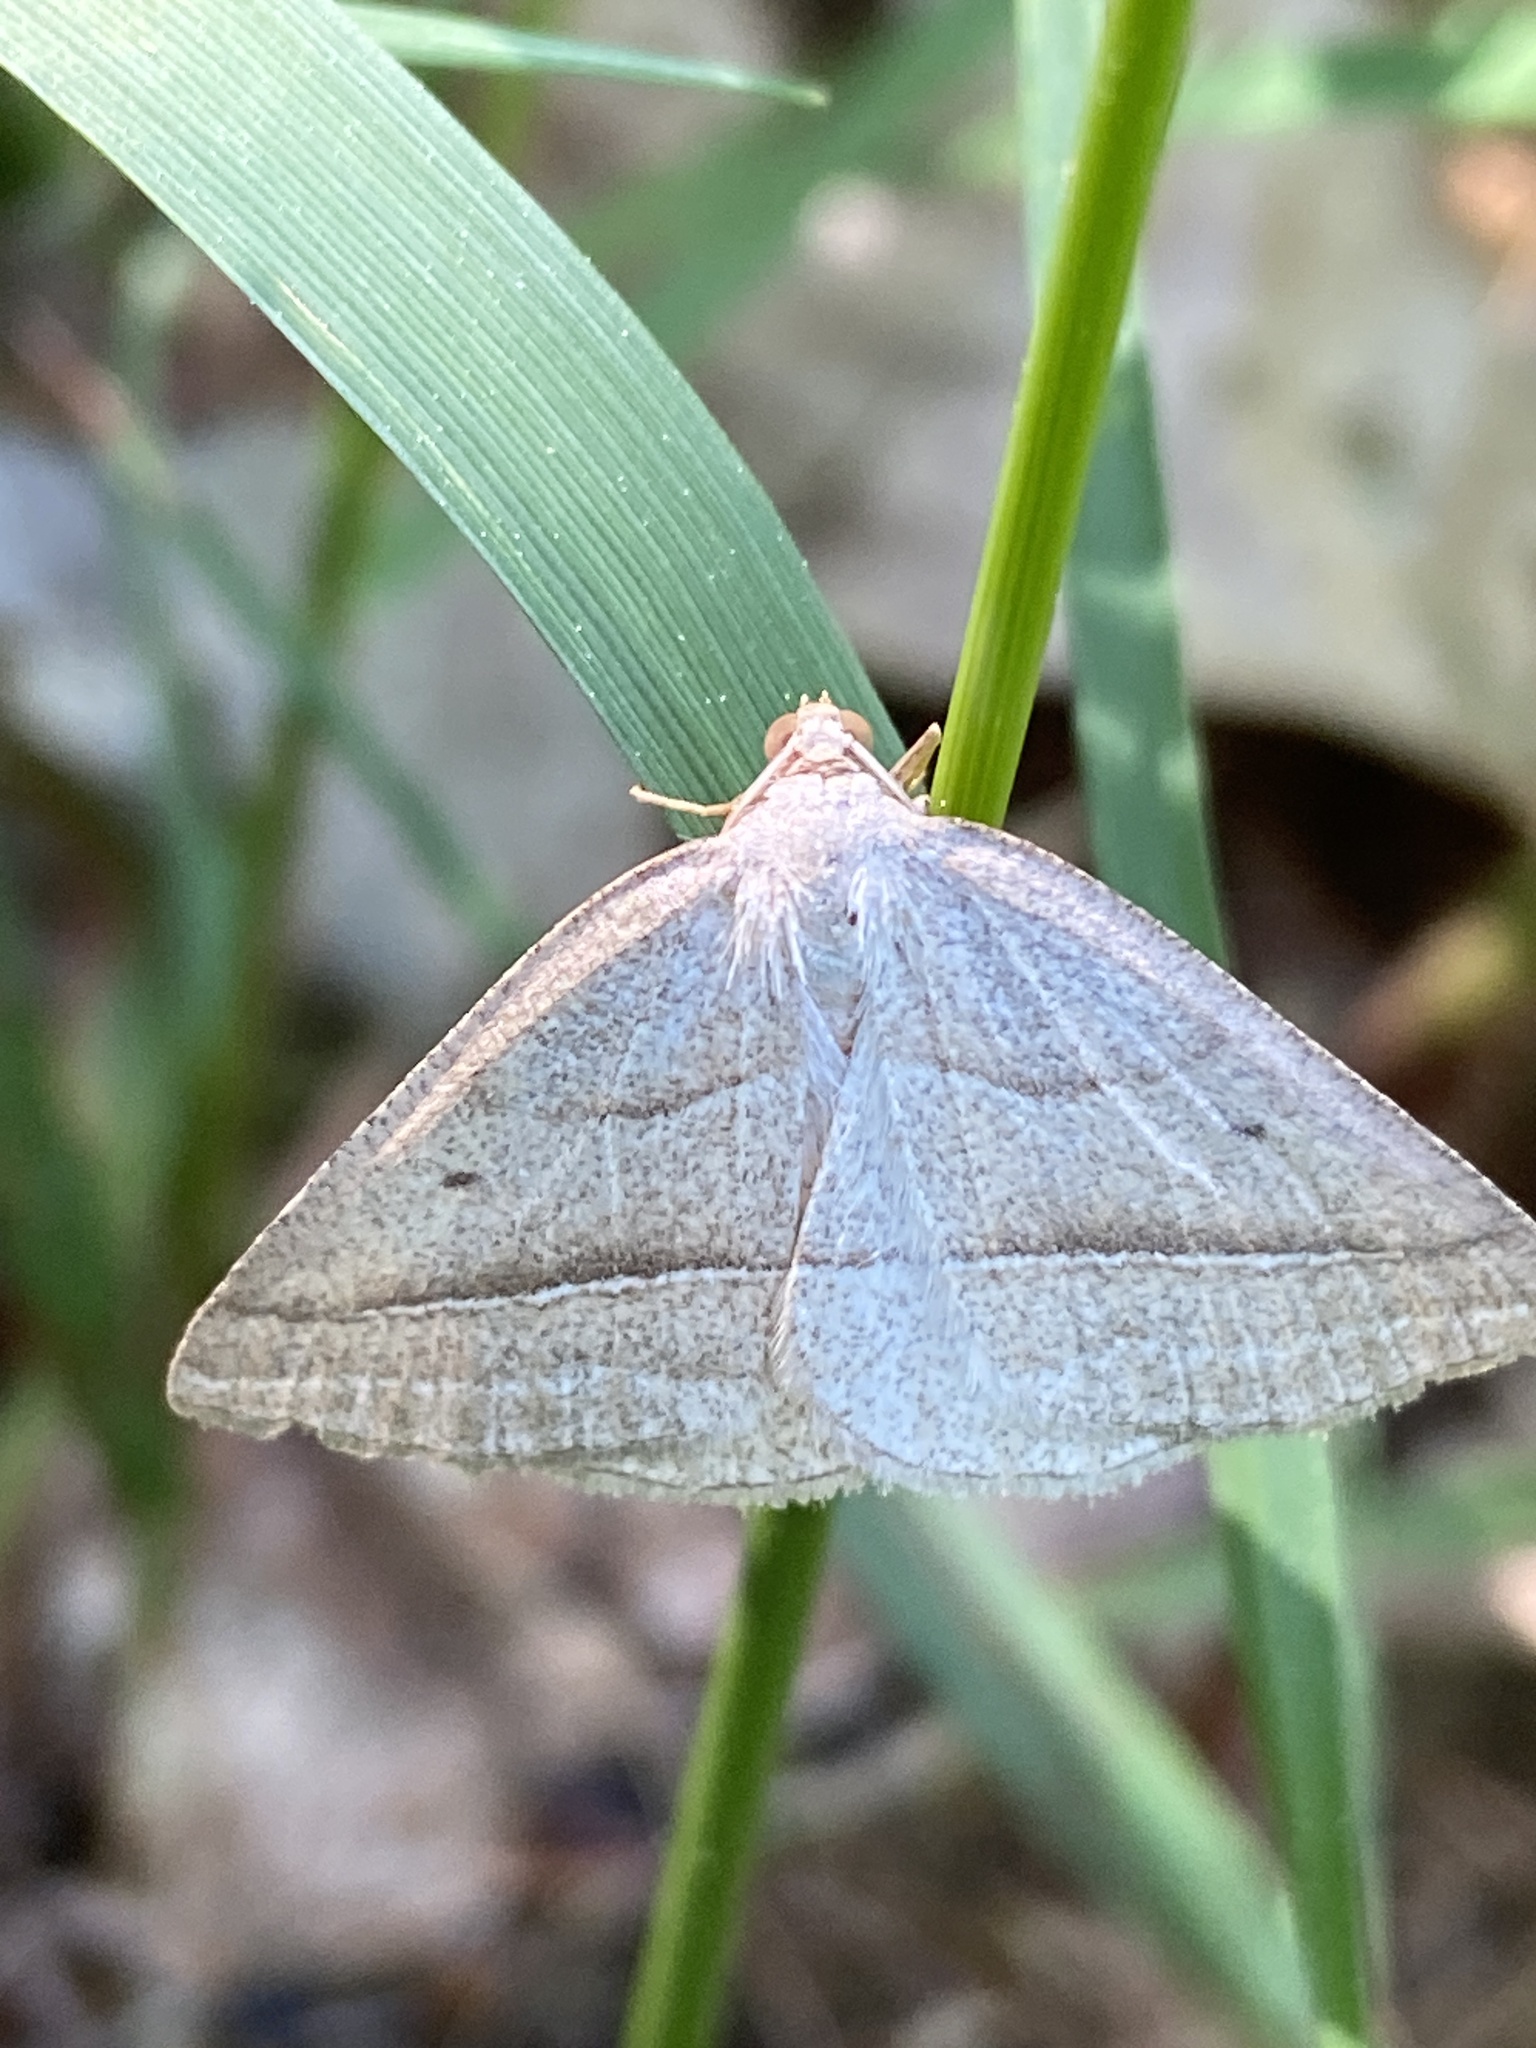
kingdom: Animalia
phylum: Arthropoda
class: Insecta
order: Lepidoptera
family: Pterophoridae
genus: Pterophorus
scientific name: Pterophorus Petrophora chlorosata
